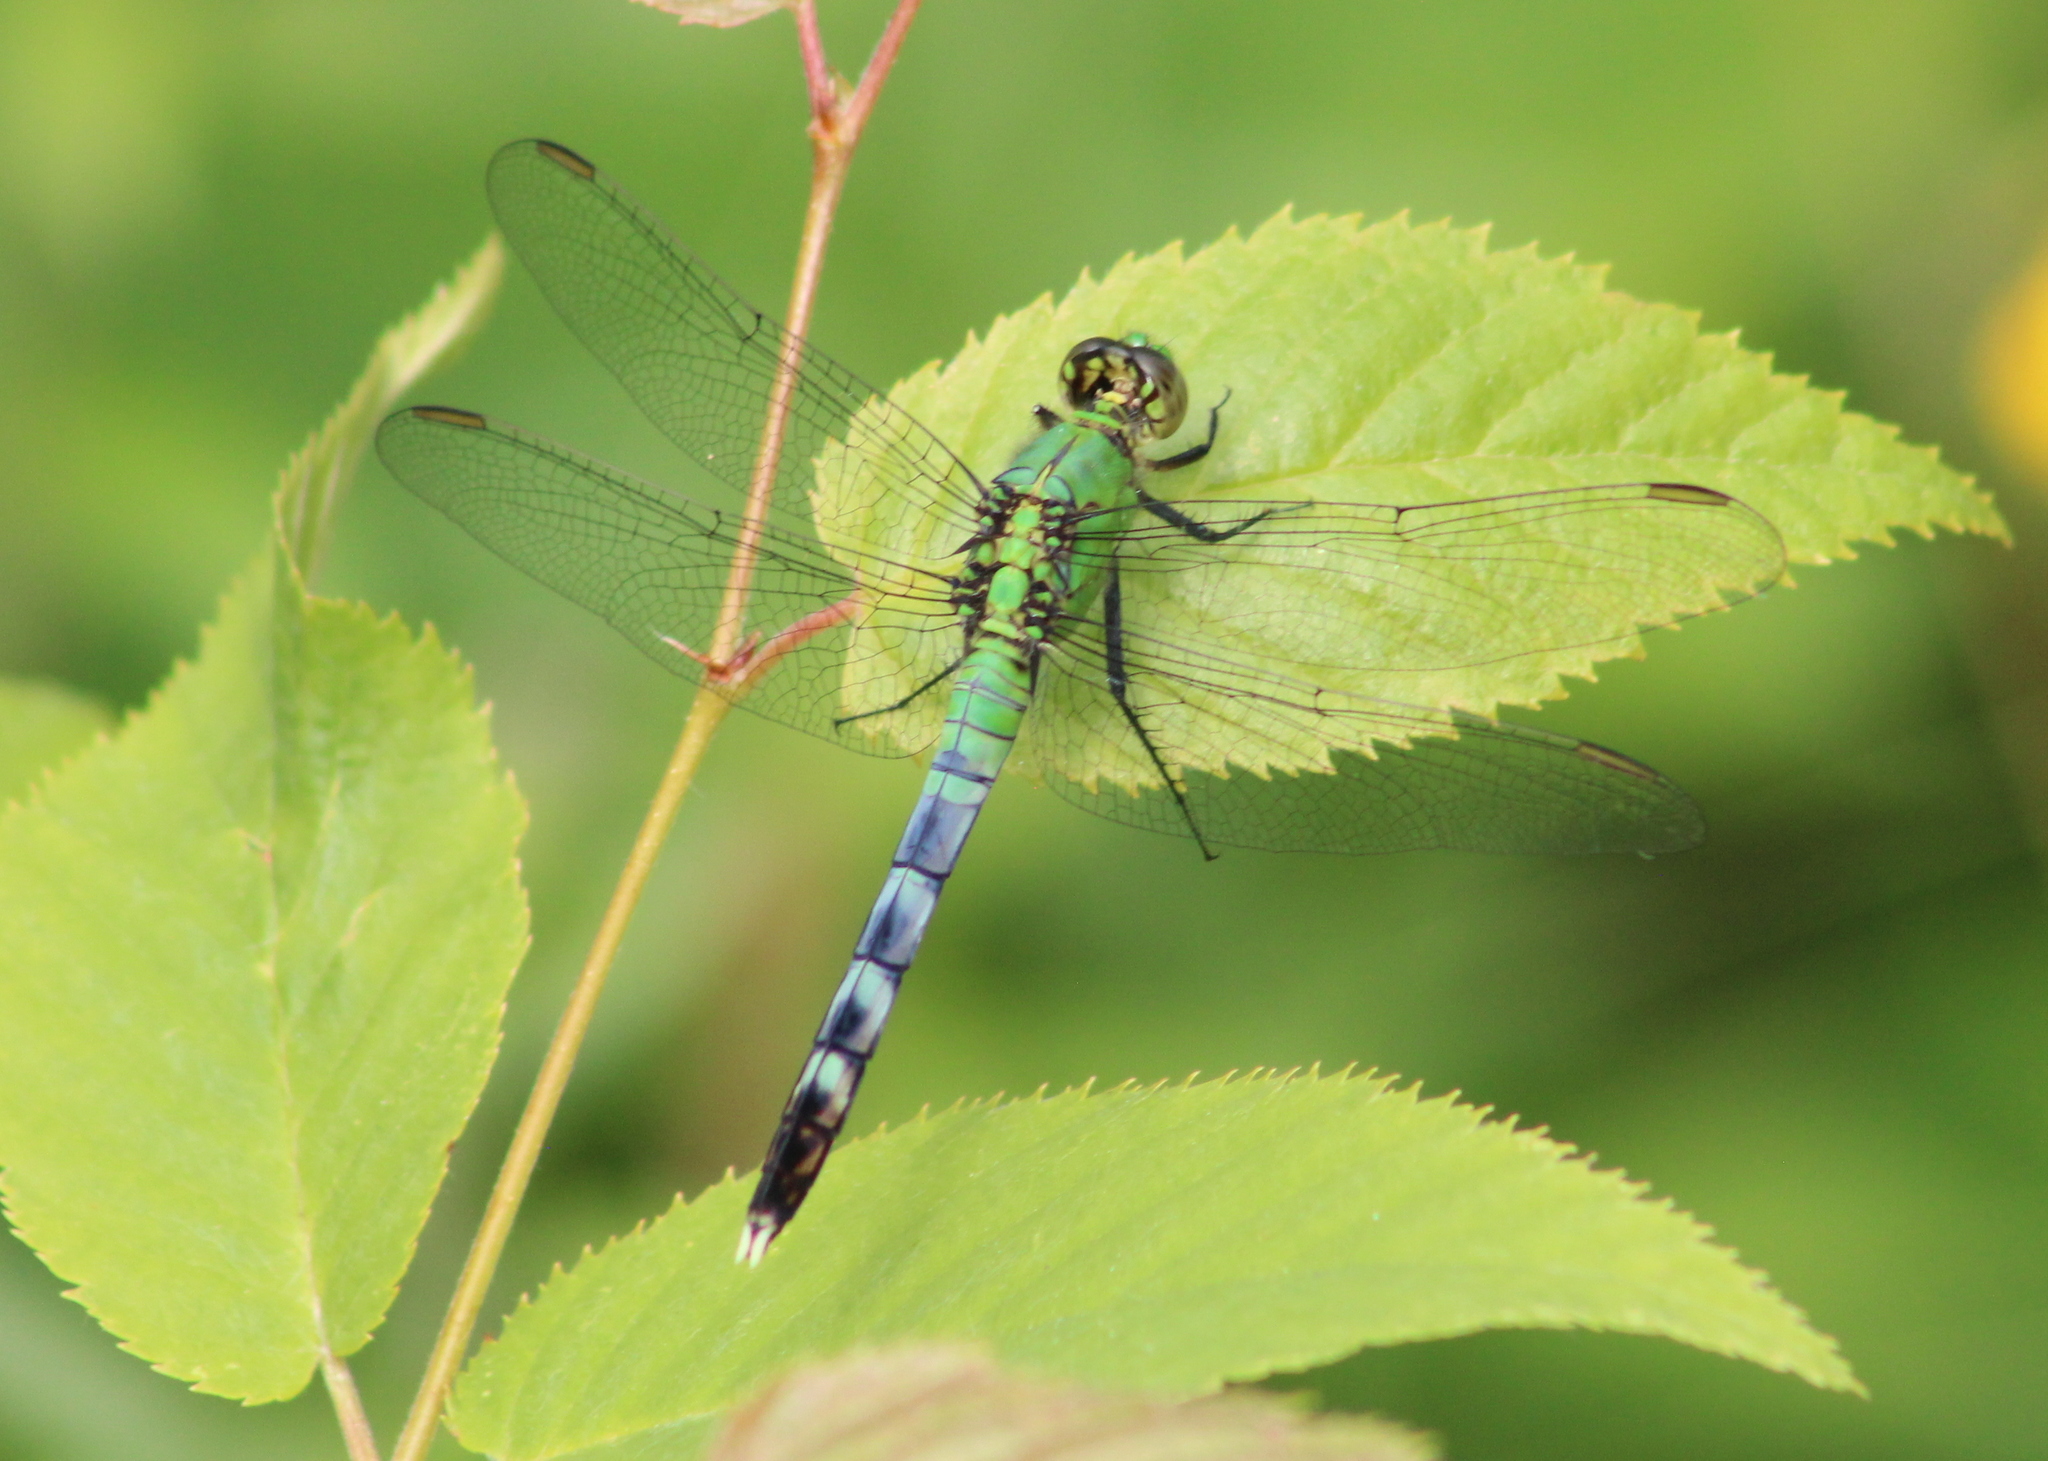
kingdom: Animalia
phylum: Arthropoda
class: Insecta
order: Odonata
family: Libellulidae
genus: Erythemis
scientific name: Erythemis simplicicollis
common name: Eastern pondhawk
